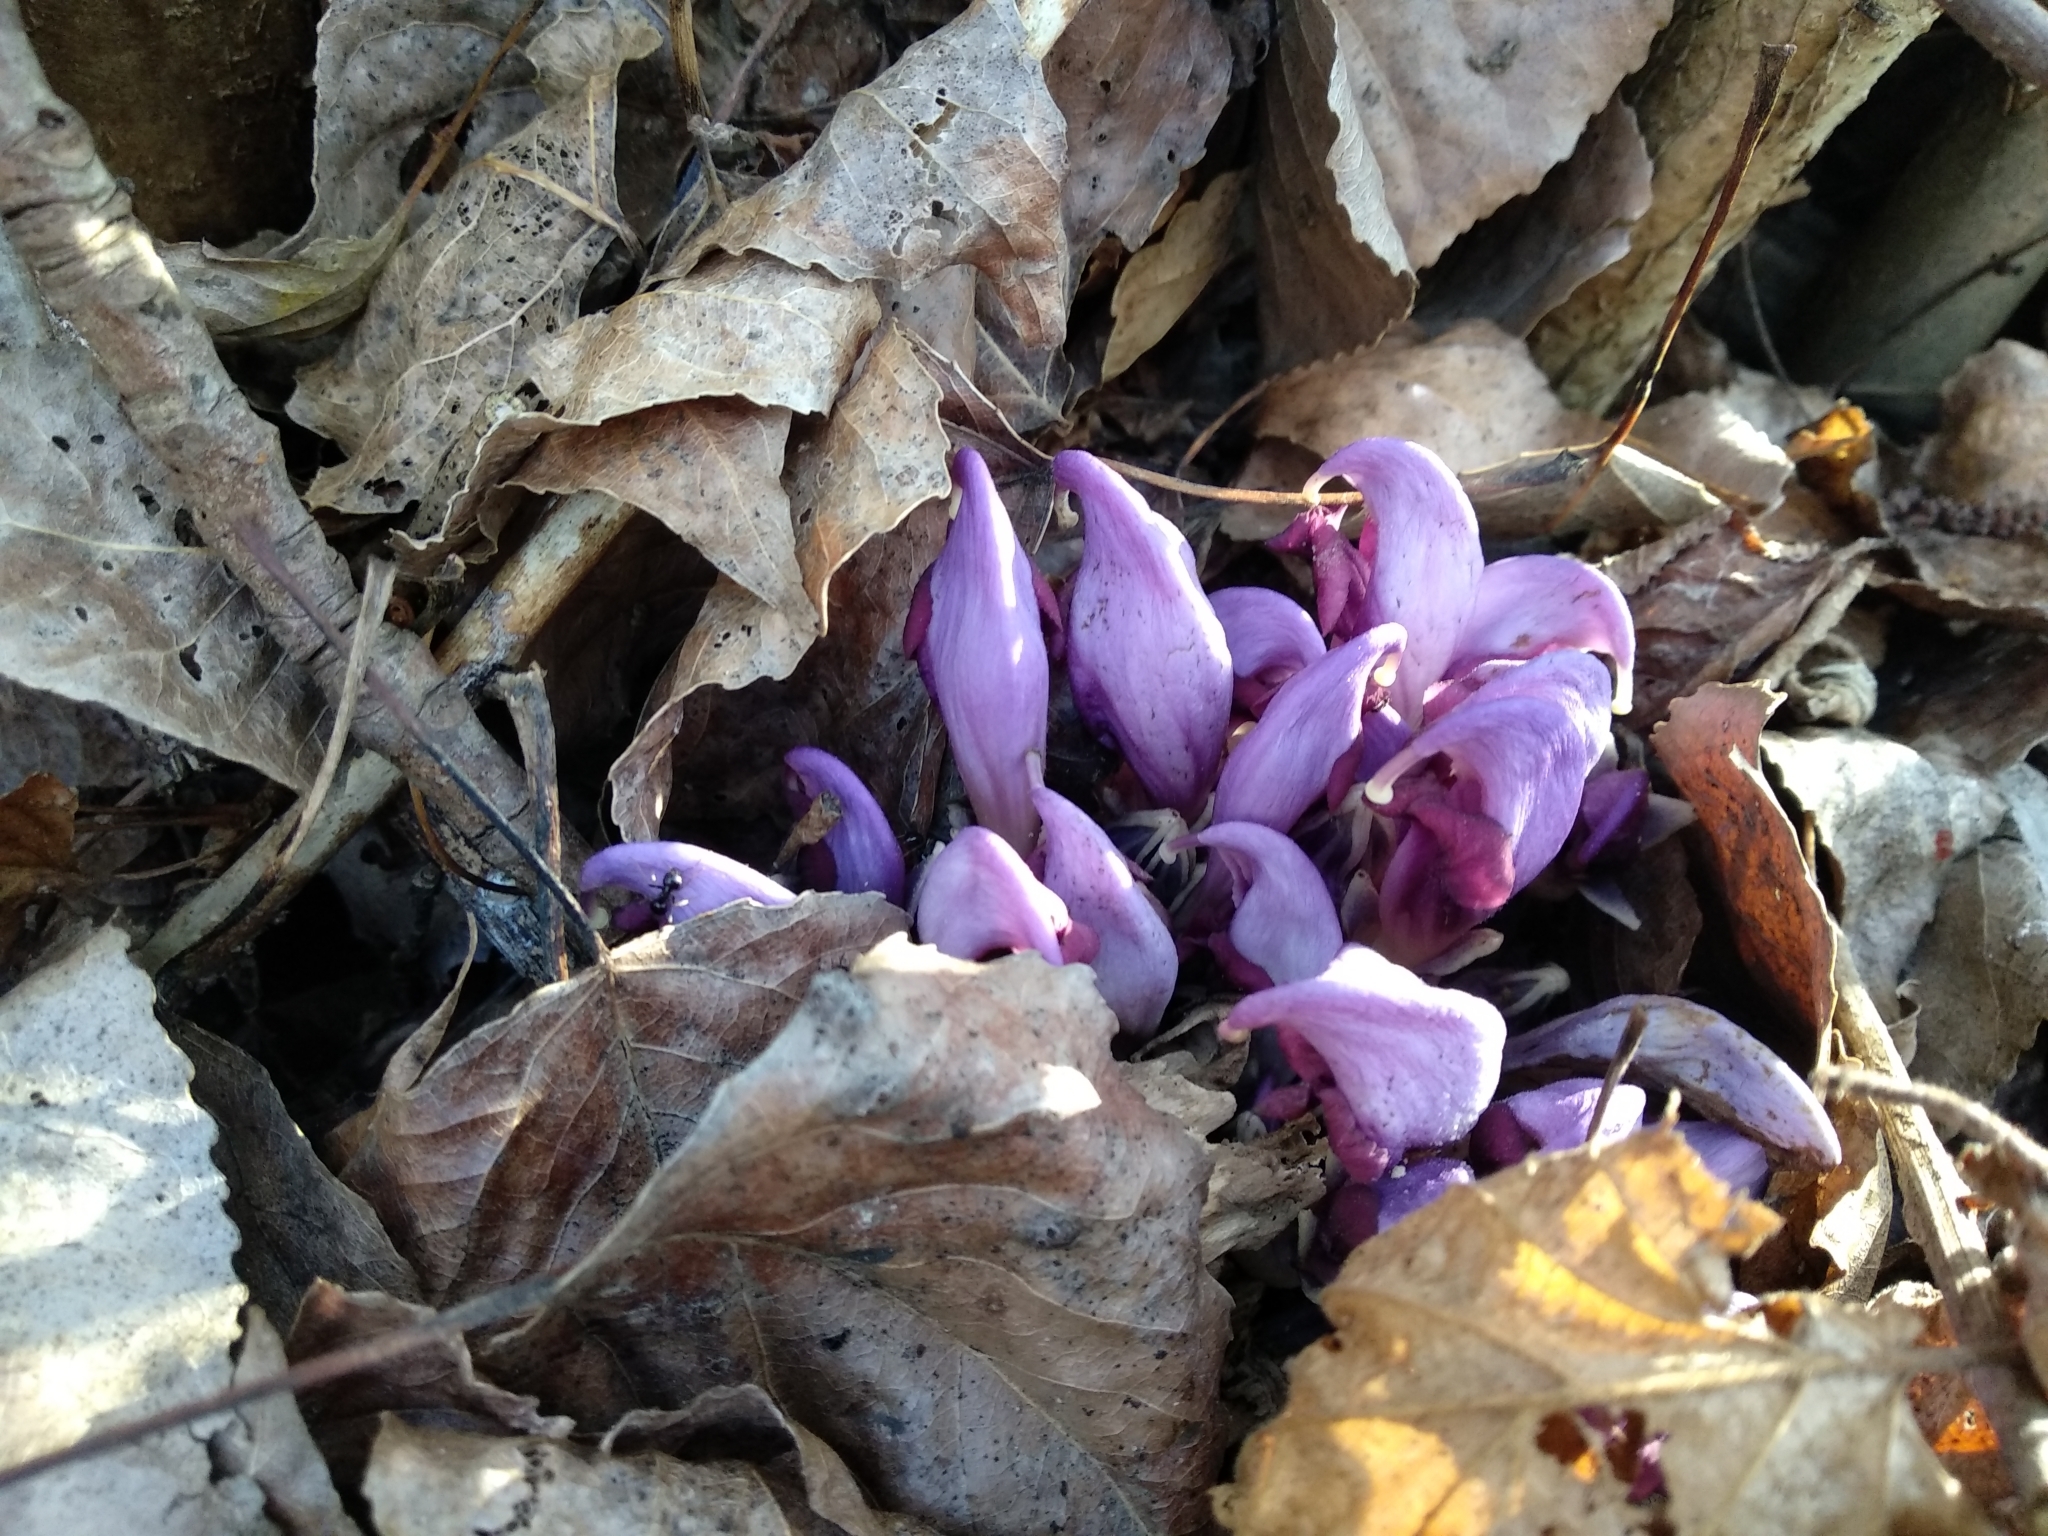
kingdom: Plantae
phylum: Tracheophyta
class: Magnoliopsida
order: Lamiales
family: Orobanchaceae
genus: Lathraea
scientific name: Lathraea clandestina
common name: Purple toothwort
